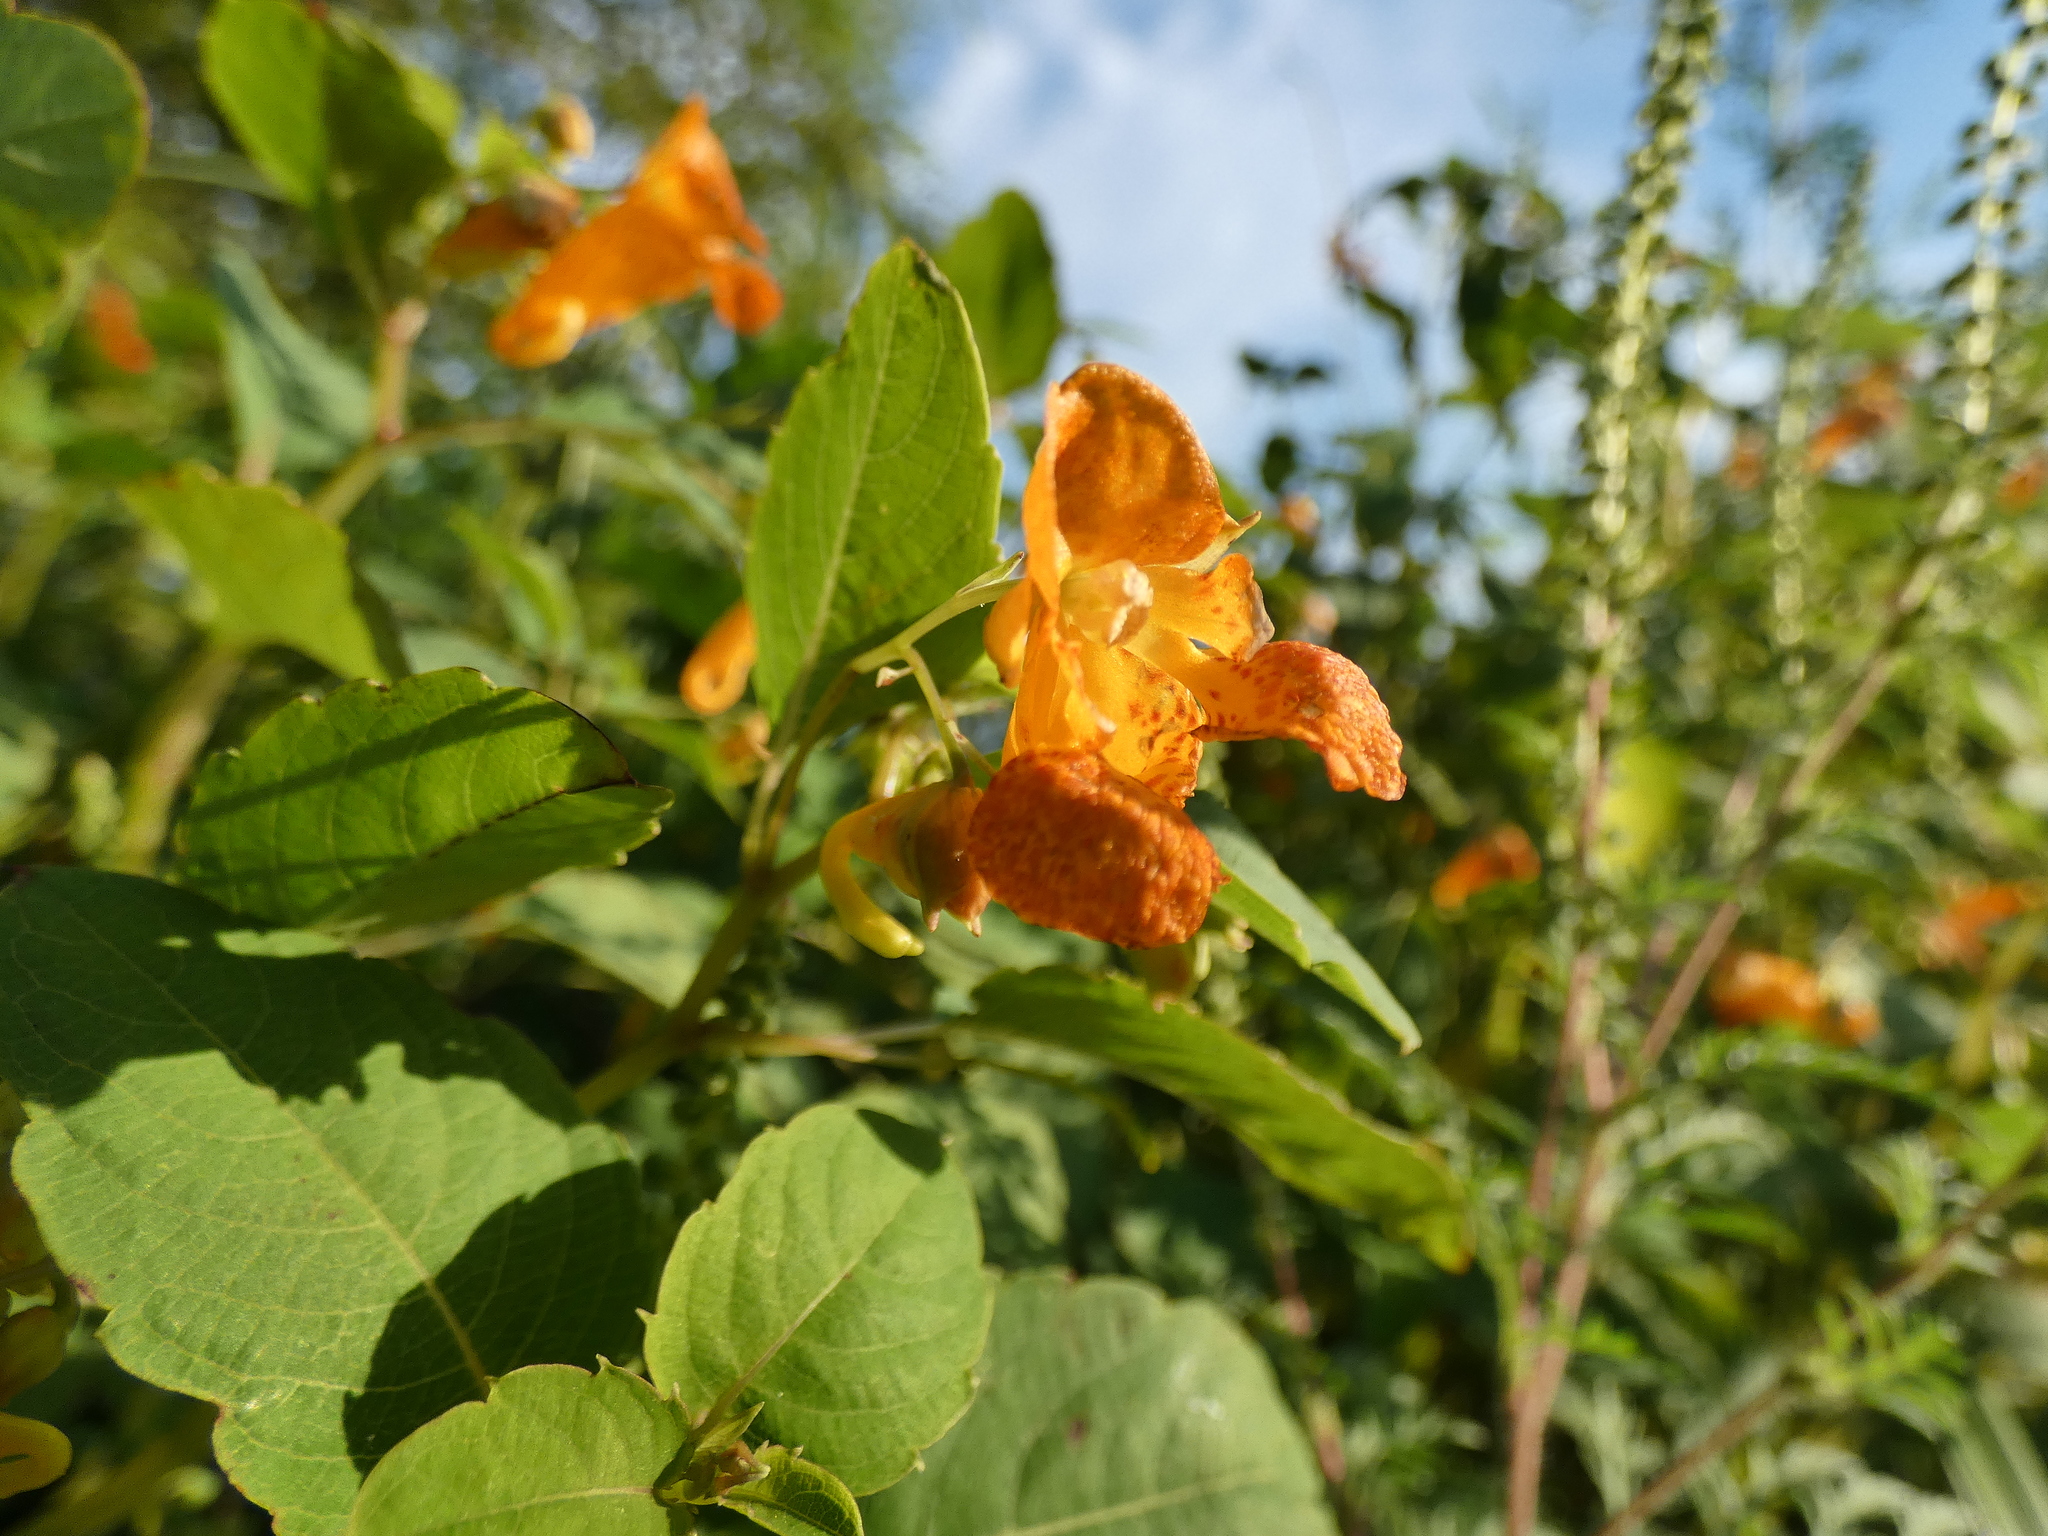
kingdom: Plantae
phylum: Tracheophyta
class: Magnoliopsida
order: Ericales
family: Balsaminaceae
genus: Impatiens
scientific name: Impatiens capensis
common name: Orange balsam
